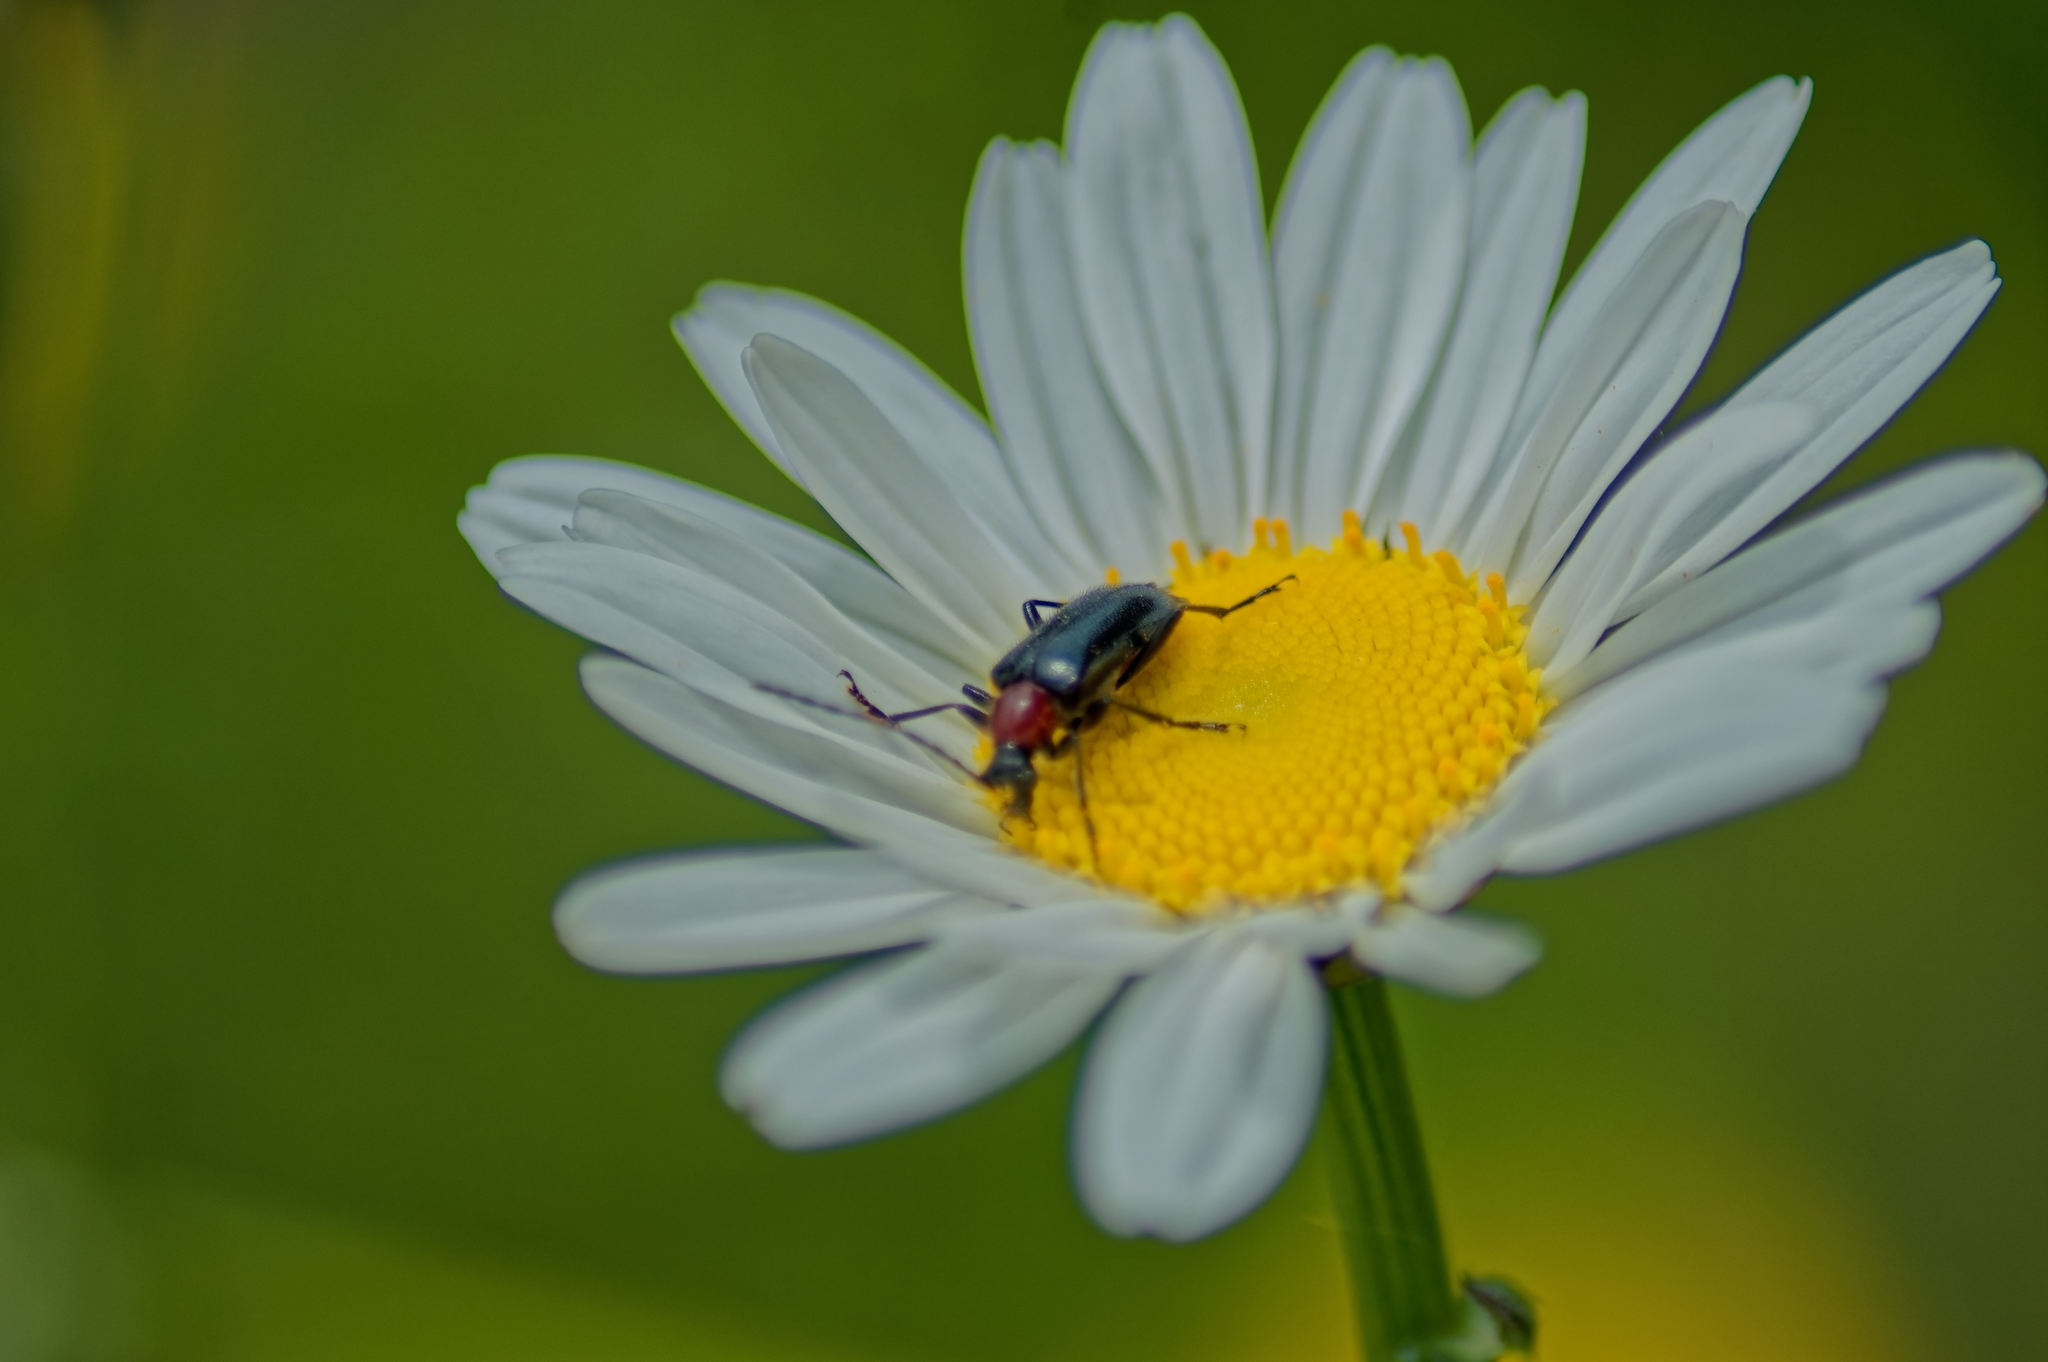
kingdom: Animalia
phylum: Arthropoda
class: Insecta
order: Coleoptera
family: Cerambycidae
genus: Dinoptera
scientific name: Dinoptera collaris
